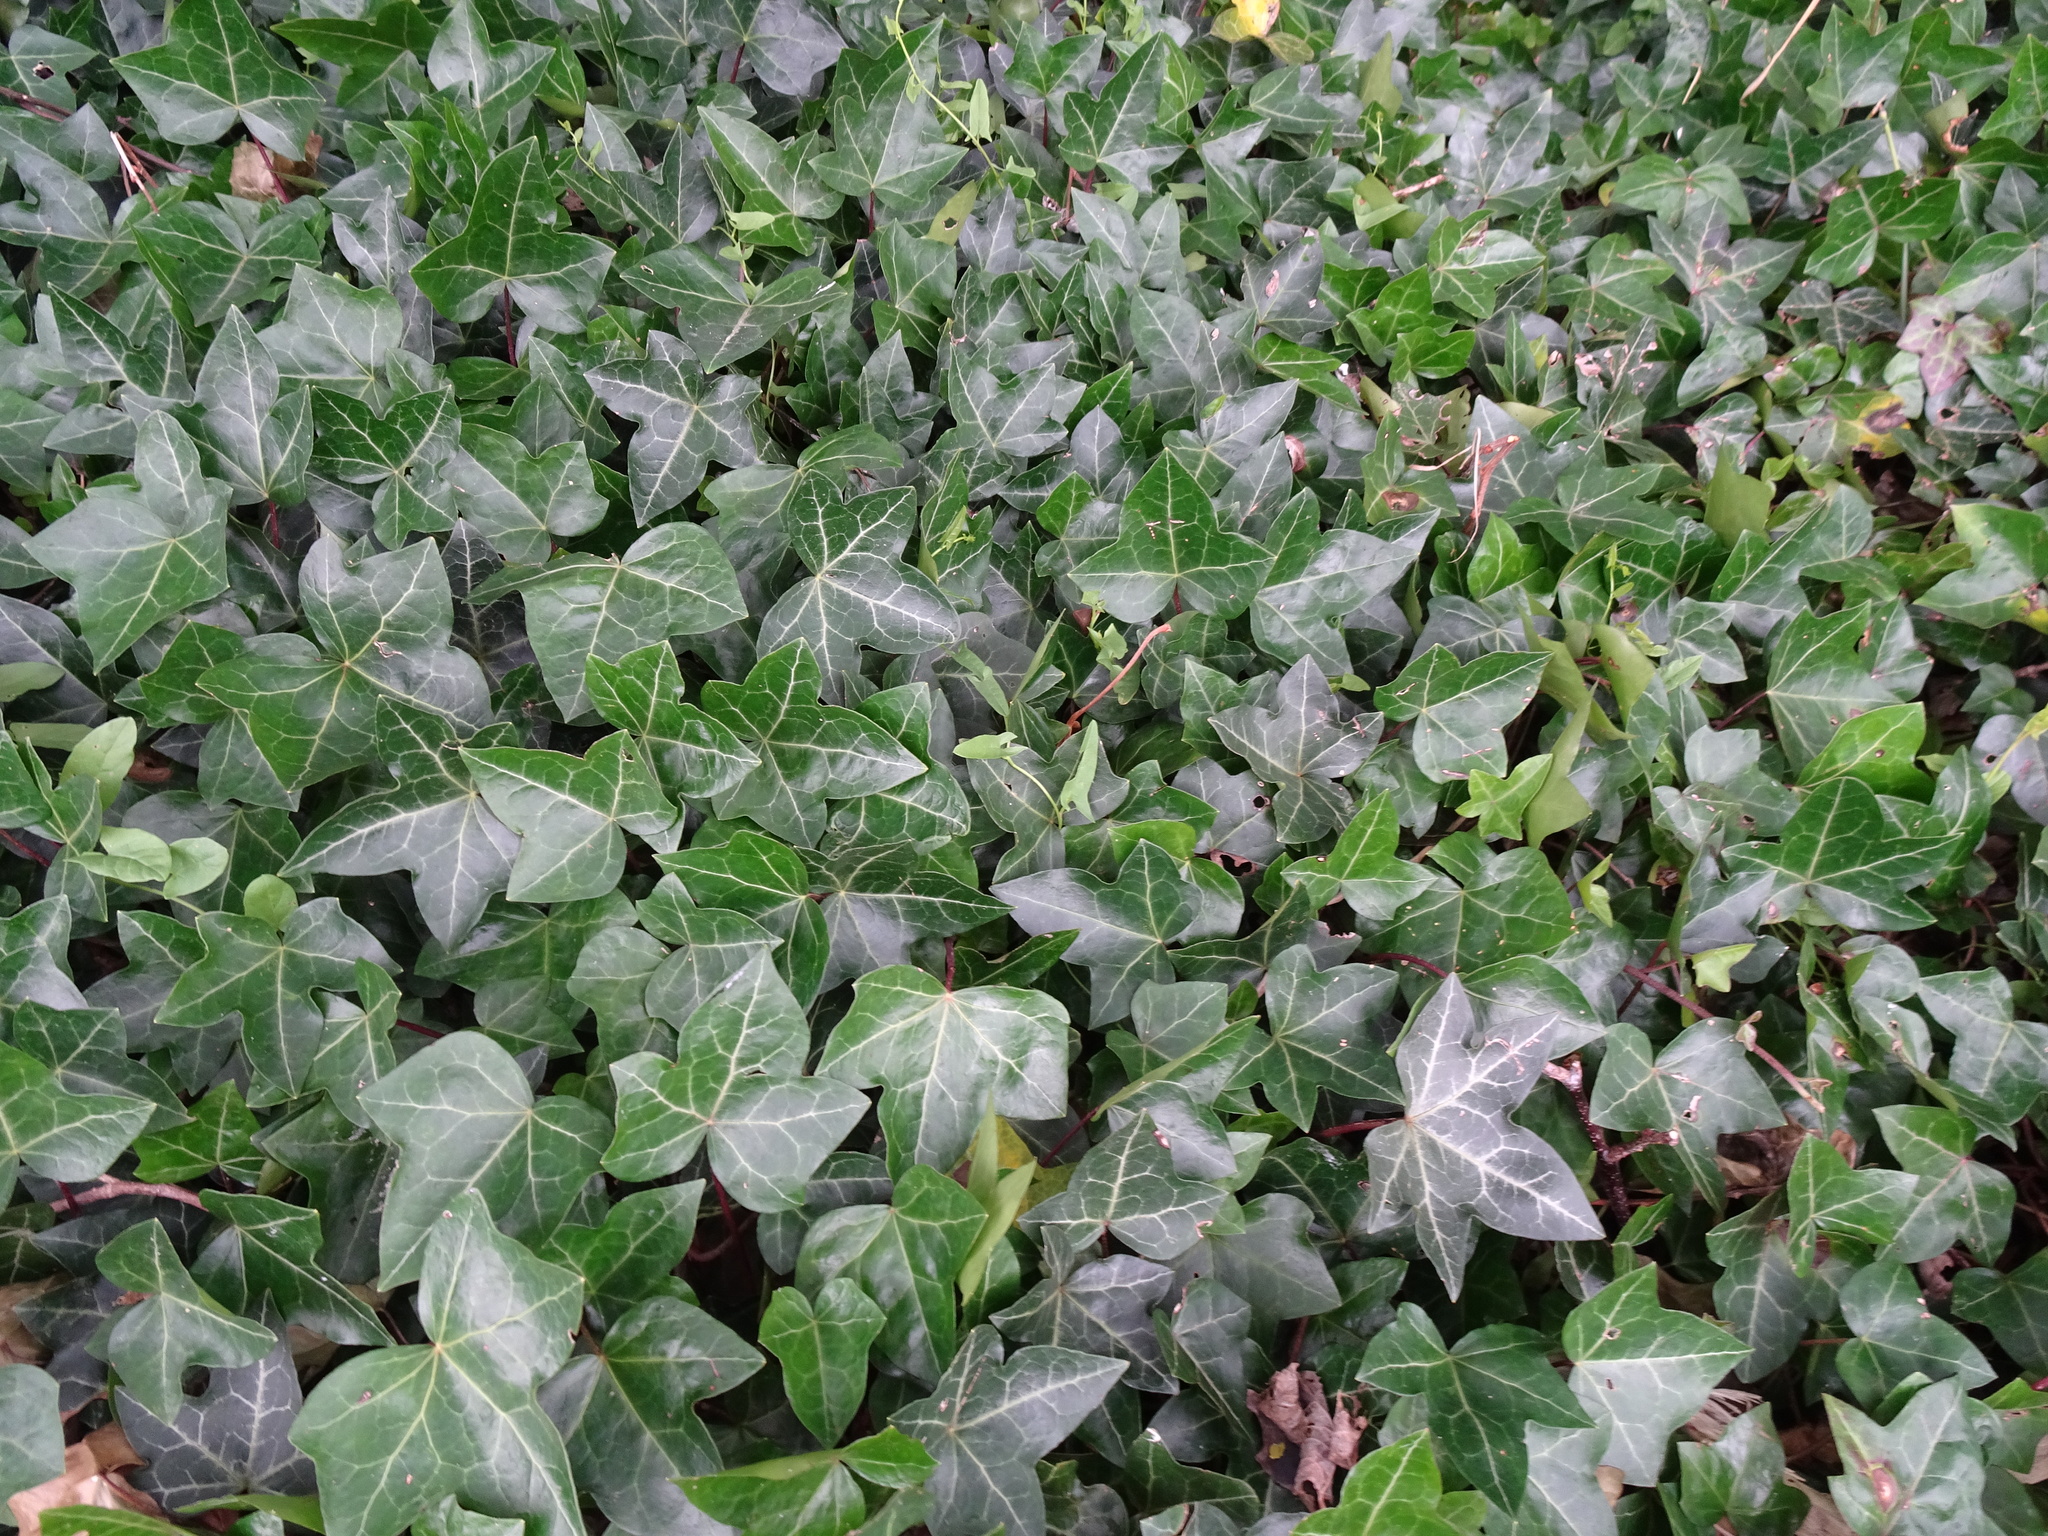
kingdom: Plantae
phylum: Tracheophyta
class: Magnoliopsida
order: Apiales
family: Araliaceae
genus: Hedera
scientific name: Hedera helix
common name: Ivy
